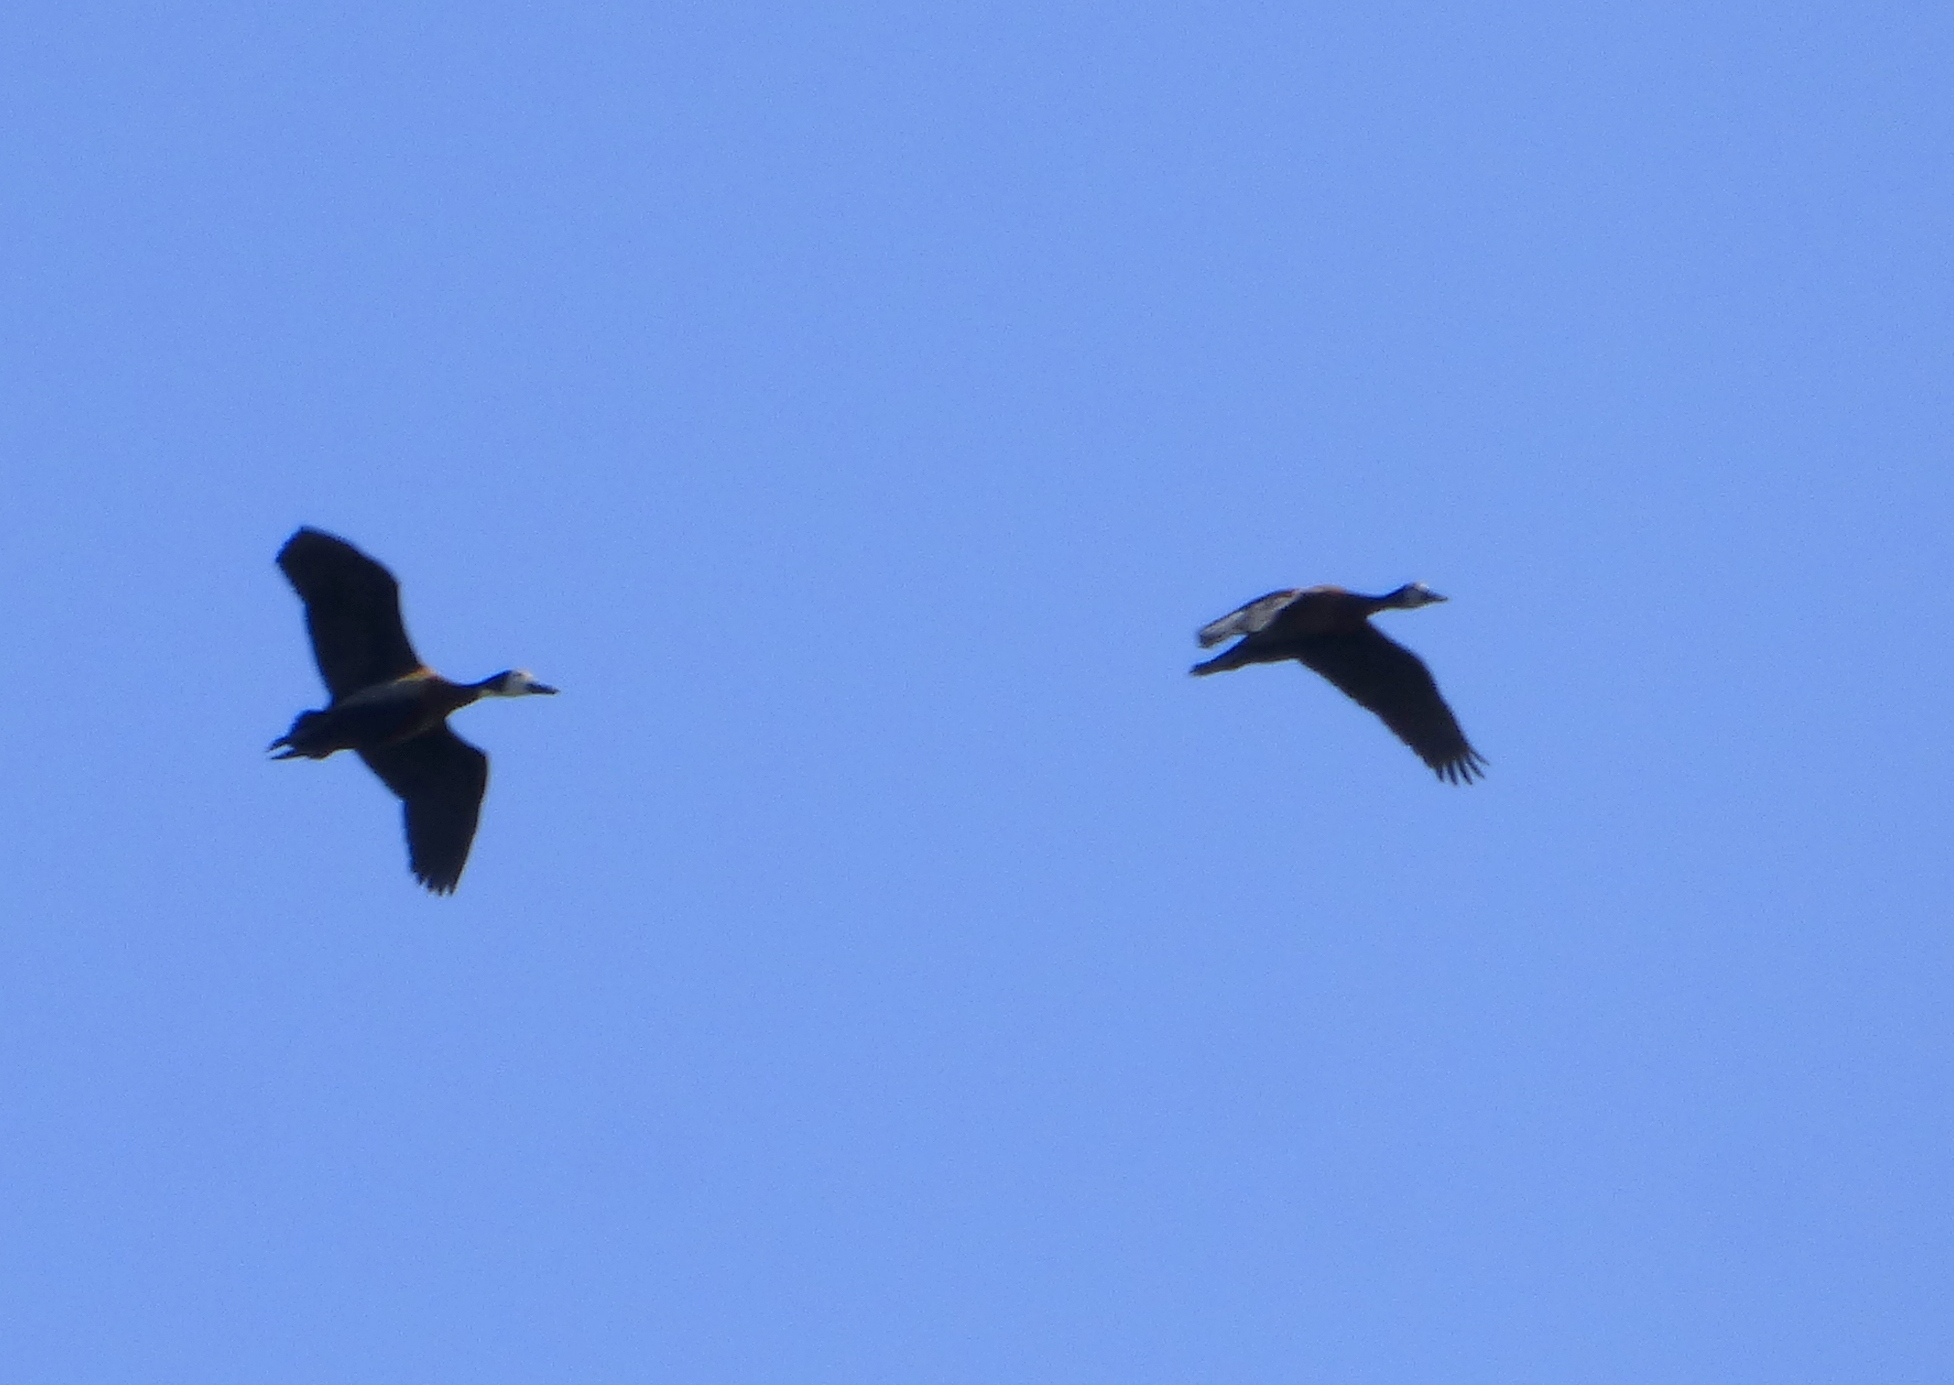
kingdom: Animalia
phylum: Chordata
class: Aves
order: Anseriformes
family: Anatidae
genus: Dendrocygna
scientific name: Dendrocygna viduata
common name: White-faced whistling duck
